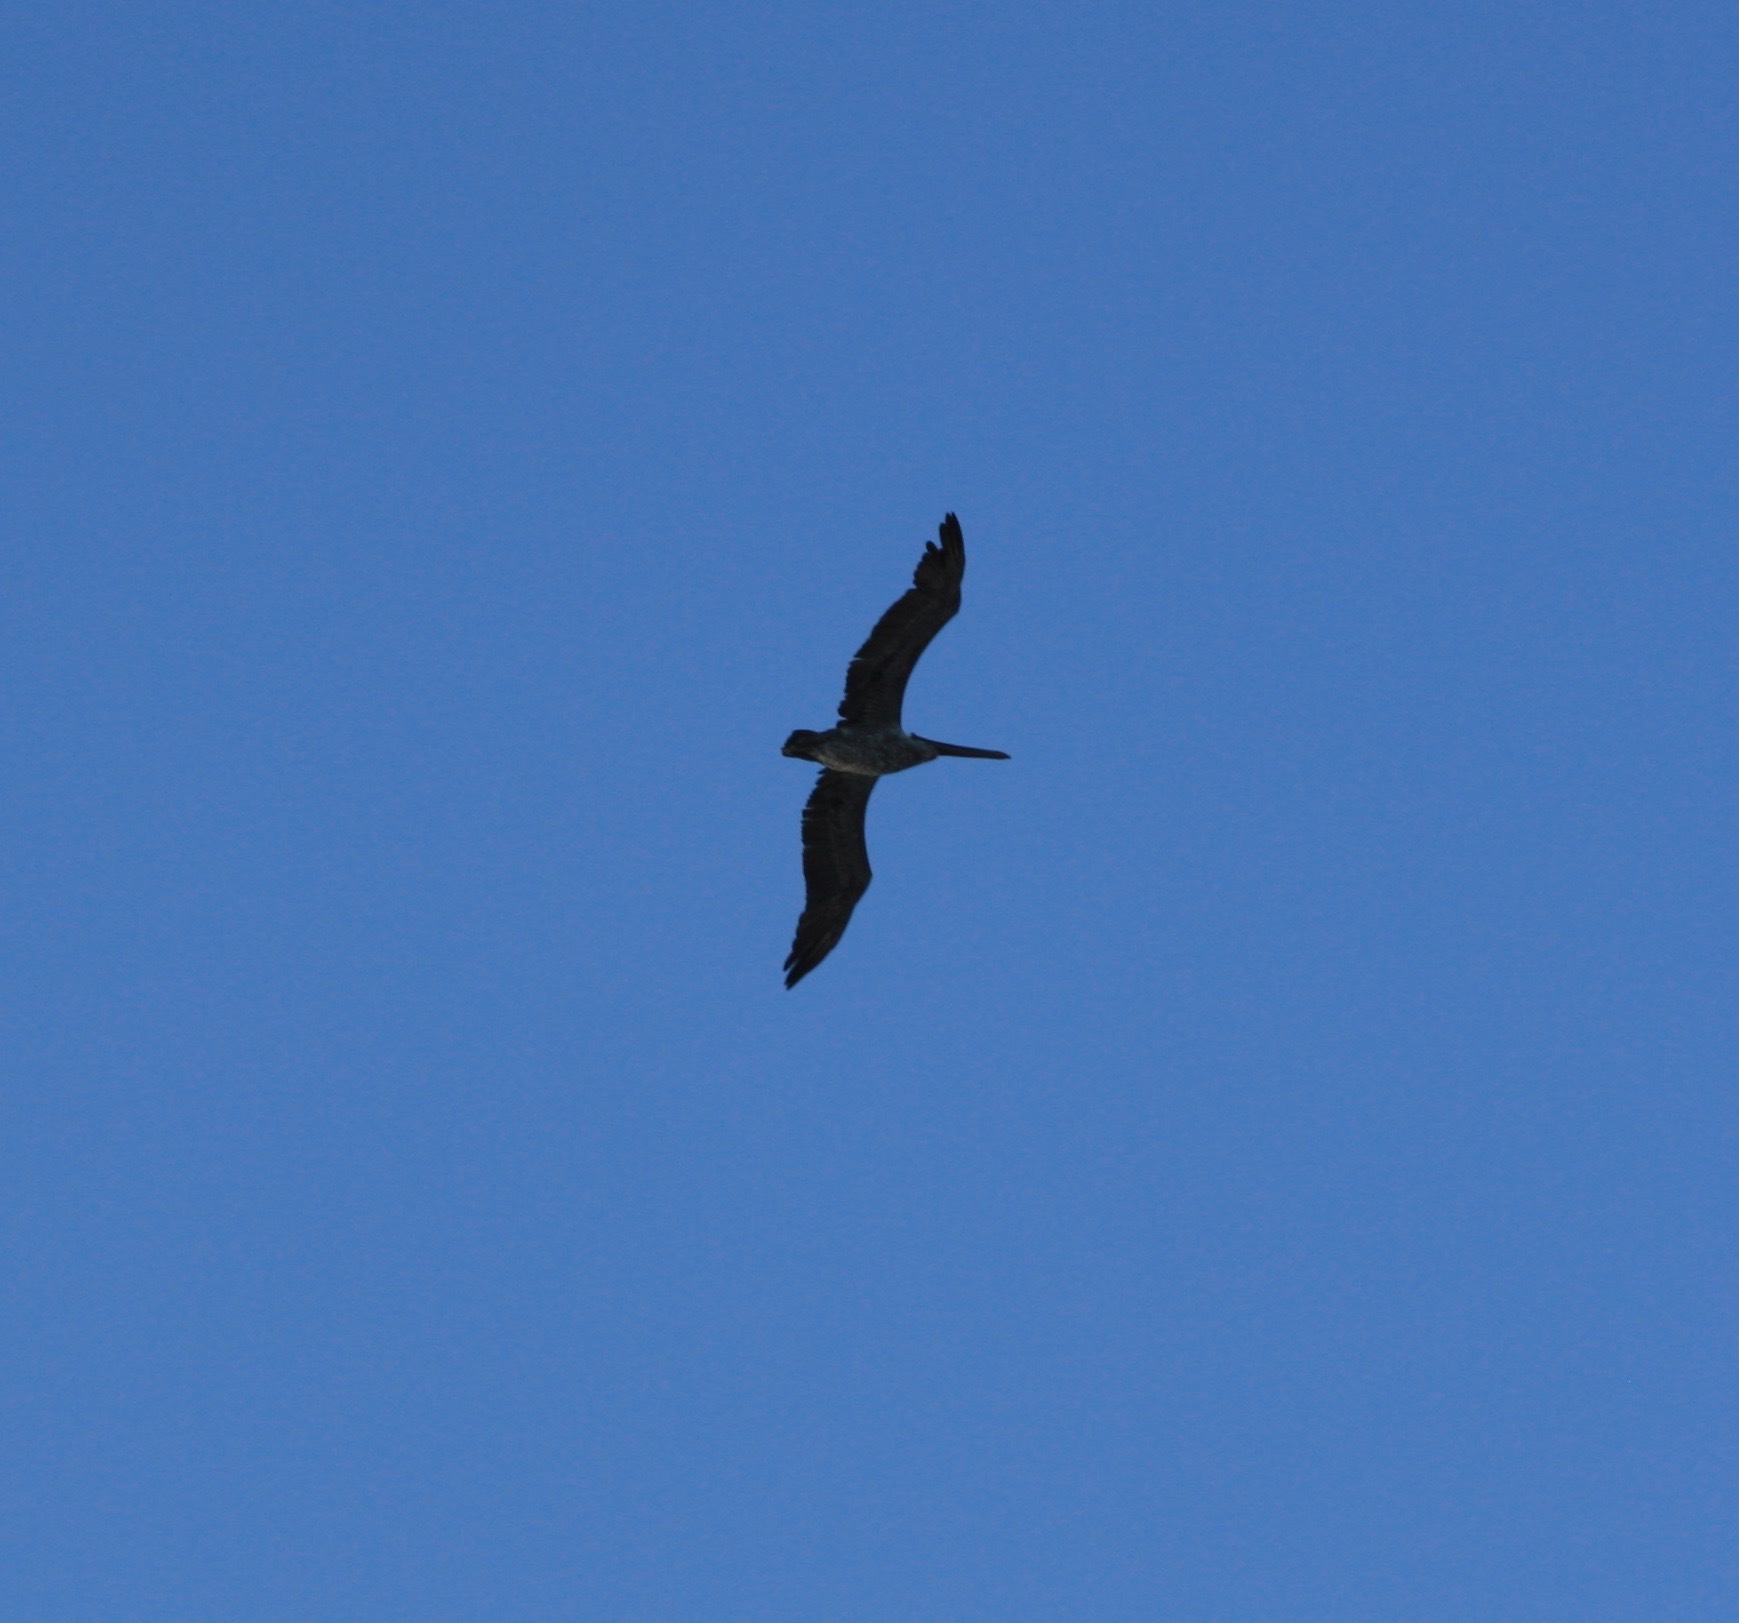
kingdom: Animalia
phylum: Chordata
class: Aves
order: Pelecaniformes
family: Pelecanidae
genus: Pelecanus
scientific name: Pelecanus occidentalis
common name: Brown pelican
